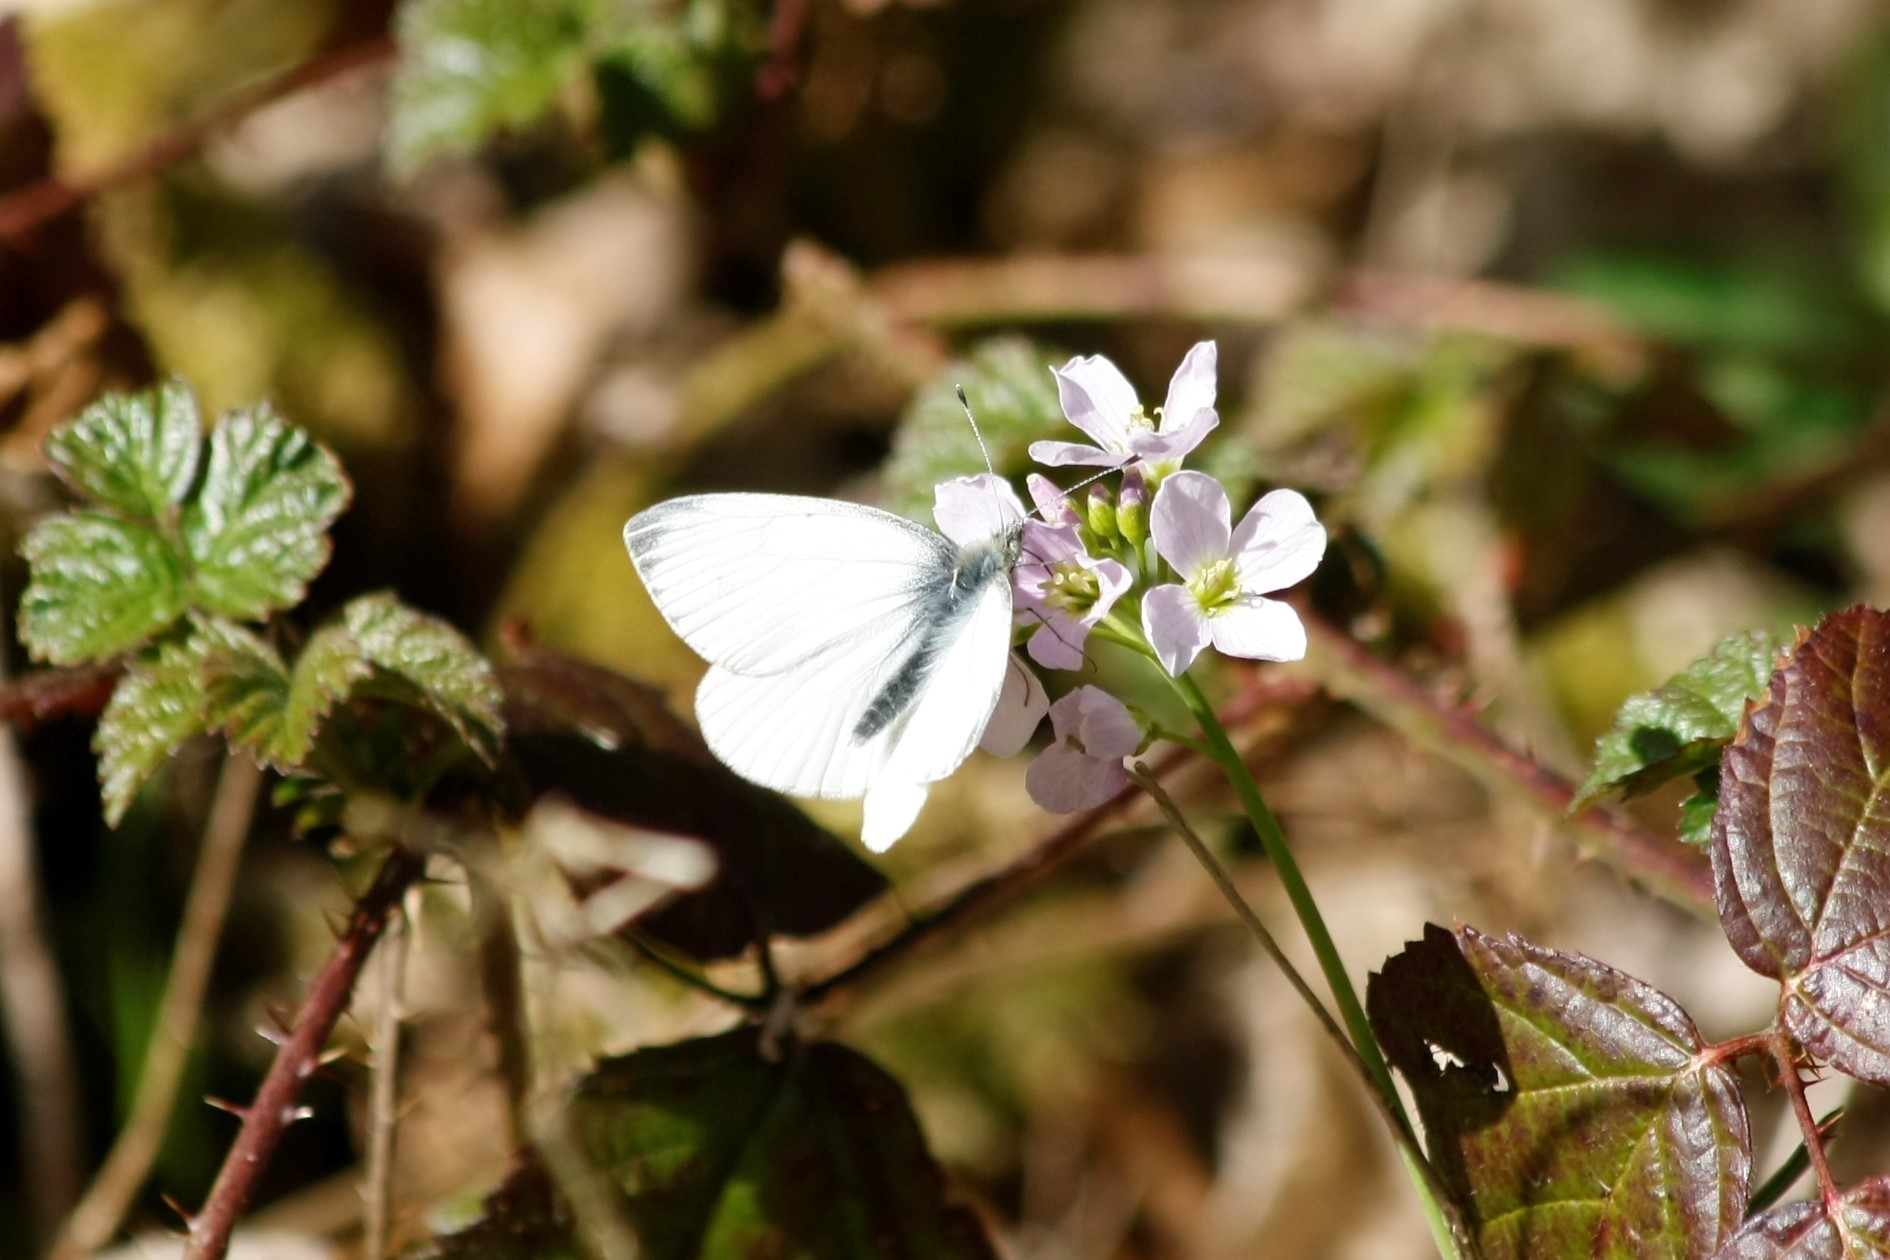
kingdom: Animalia
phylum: Arthropoda
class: Insecta
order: Lepidoptera
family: Pieridae
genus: Pieris
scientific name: Pieris napi
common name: Green-veined white
